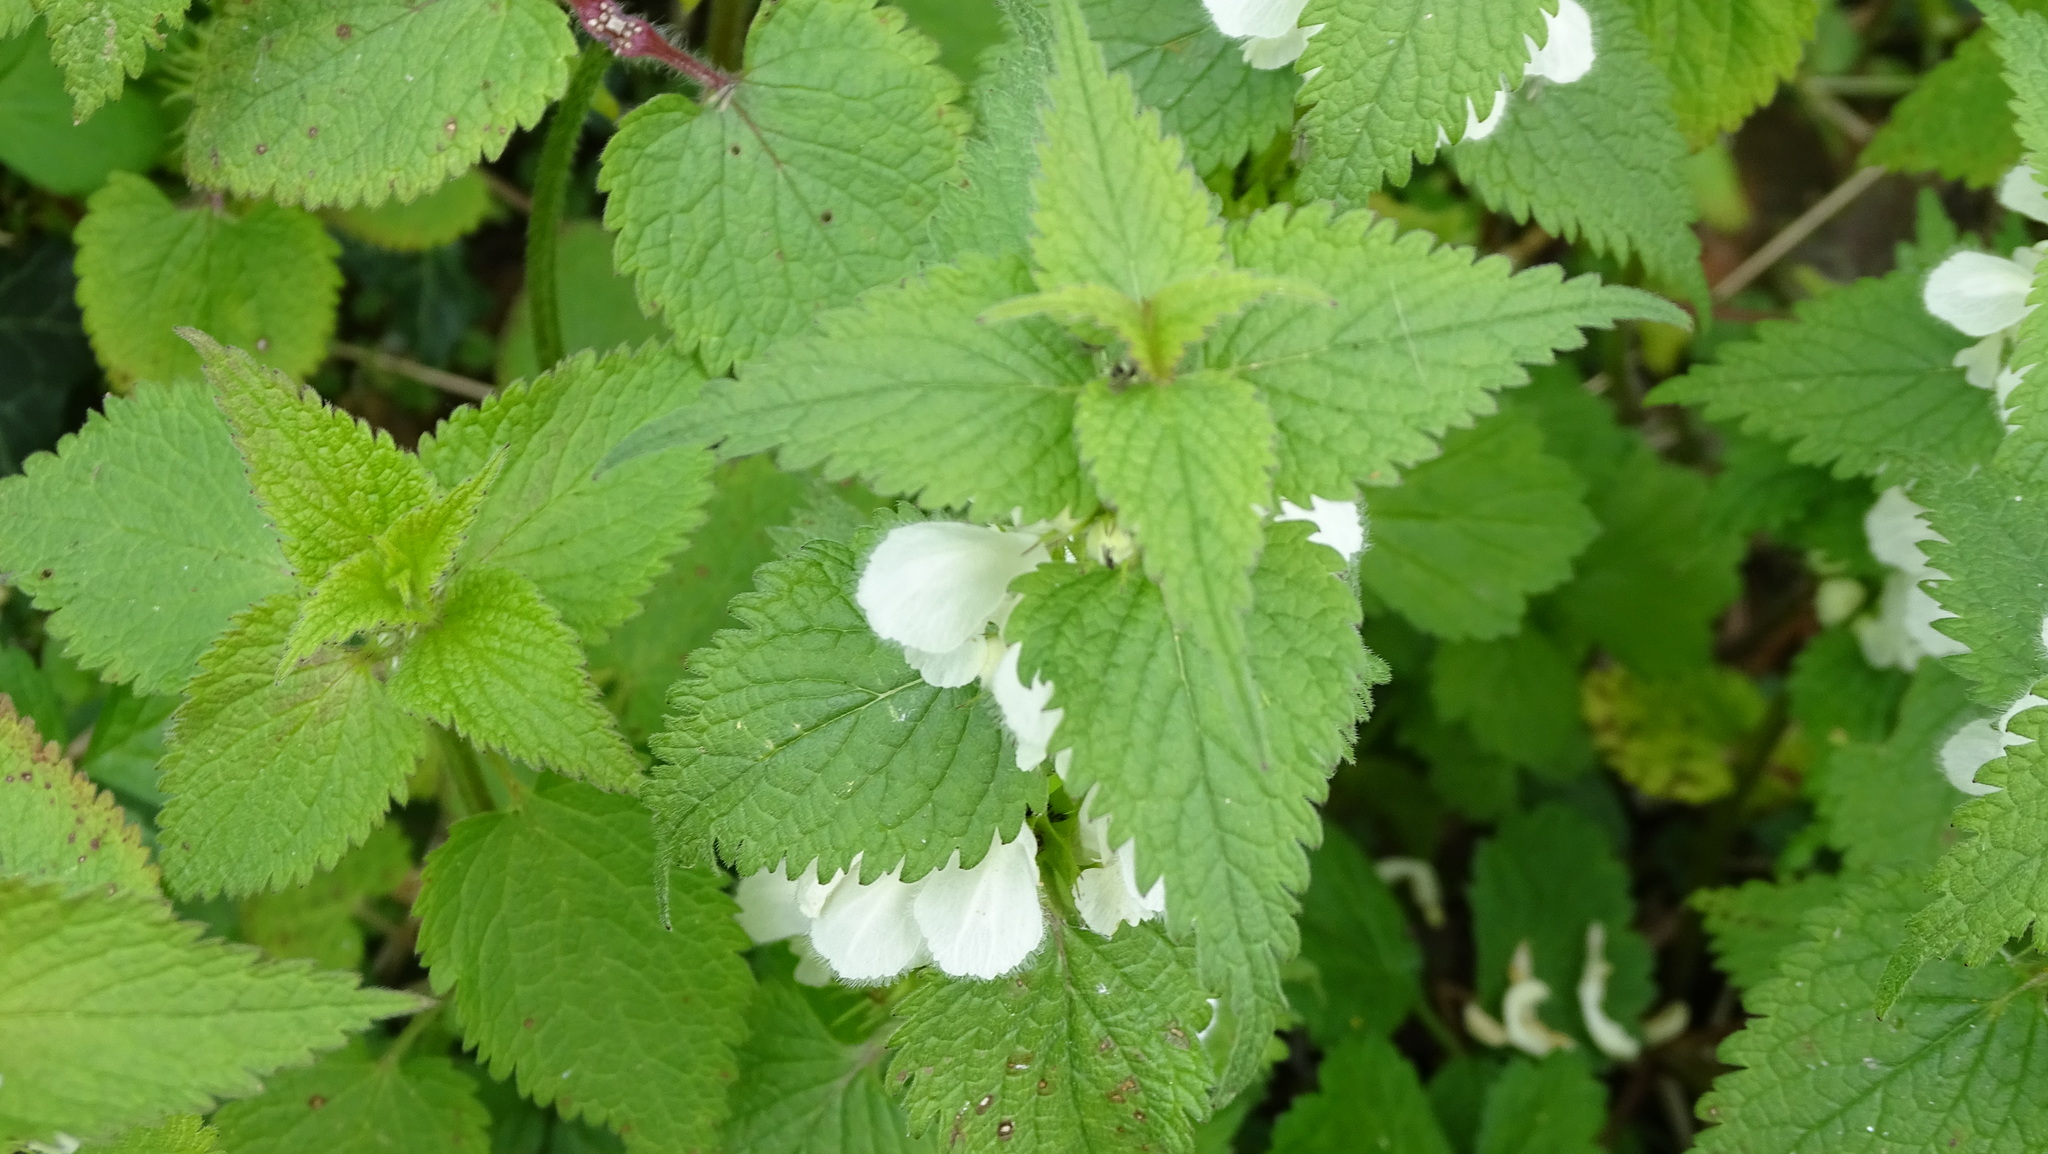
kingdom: Plantae
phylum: Tracheophyta
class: Magnoliopsida
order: Lamiales
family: Lamiaceae
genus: Lamium
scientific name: Lamium album
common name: White dead-nettle
